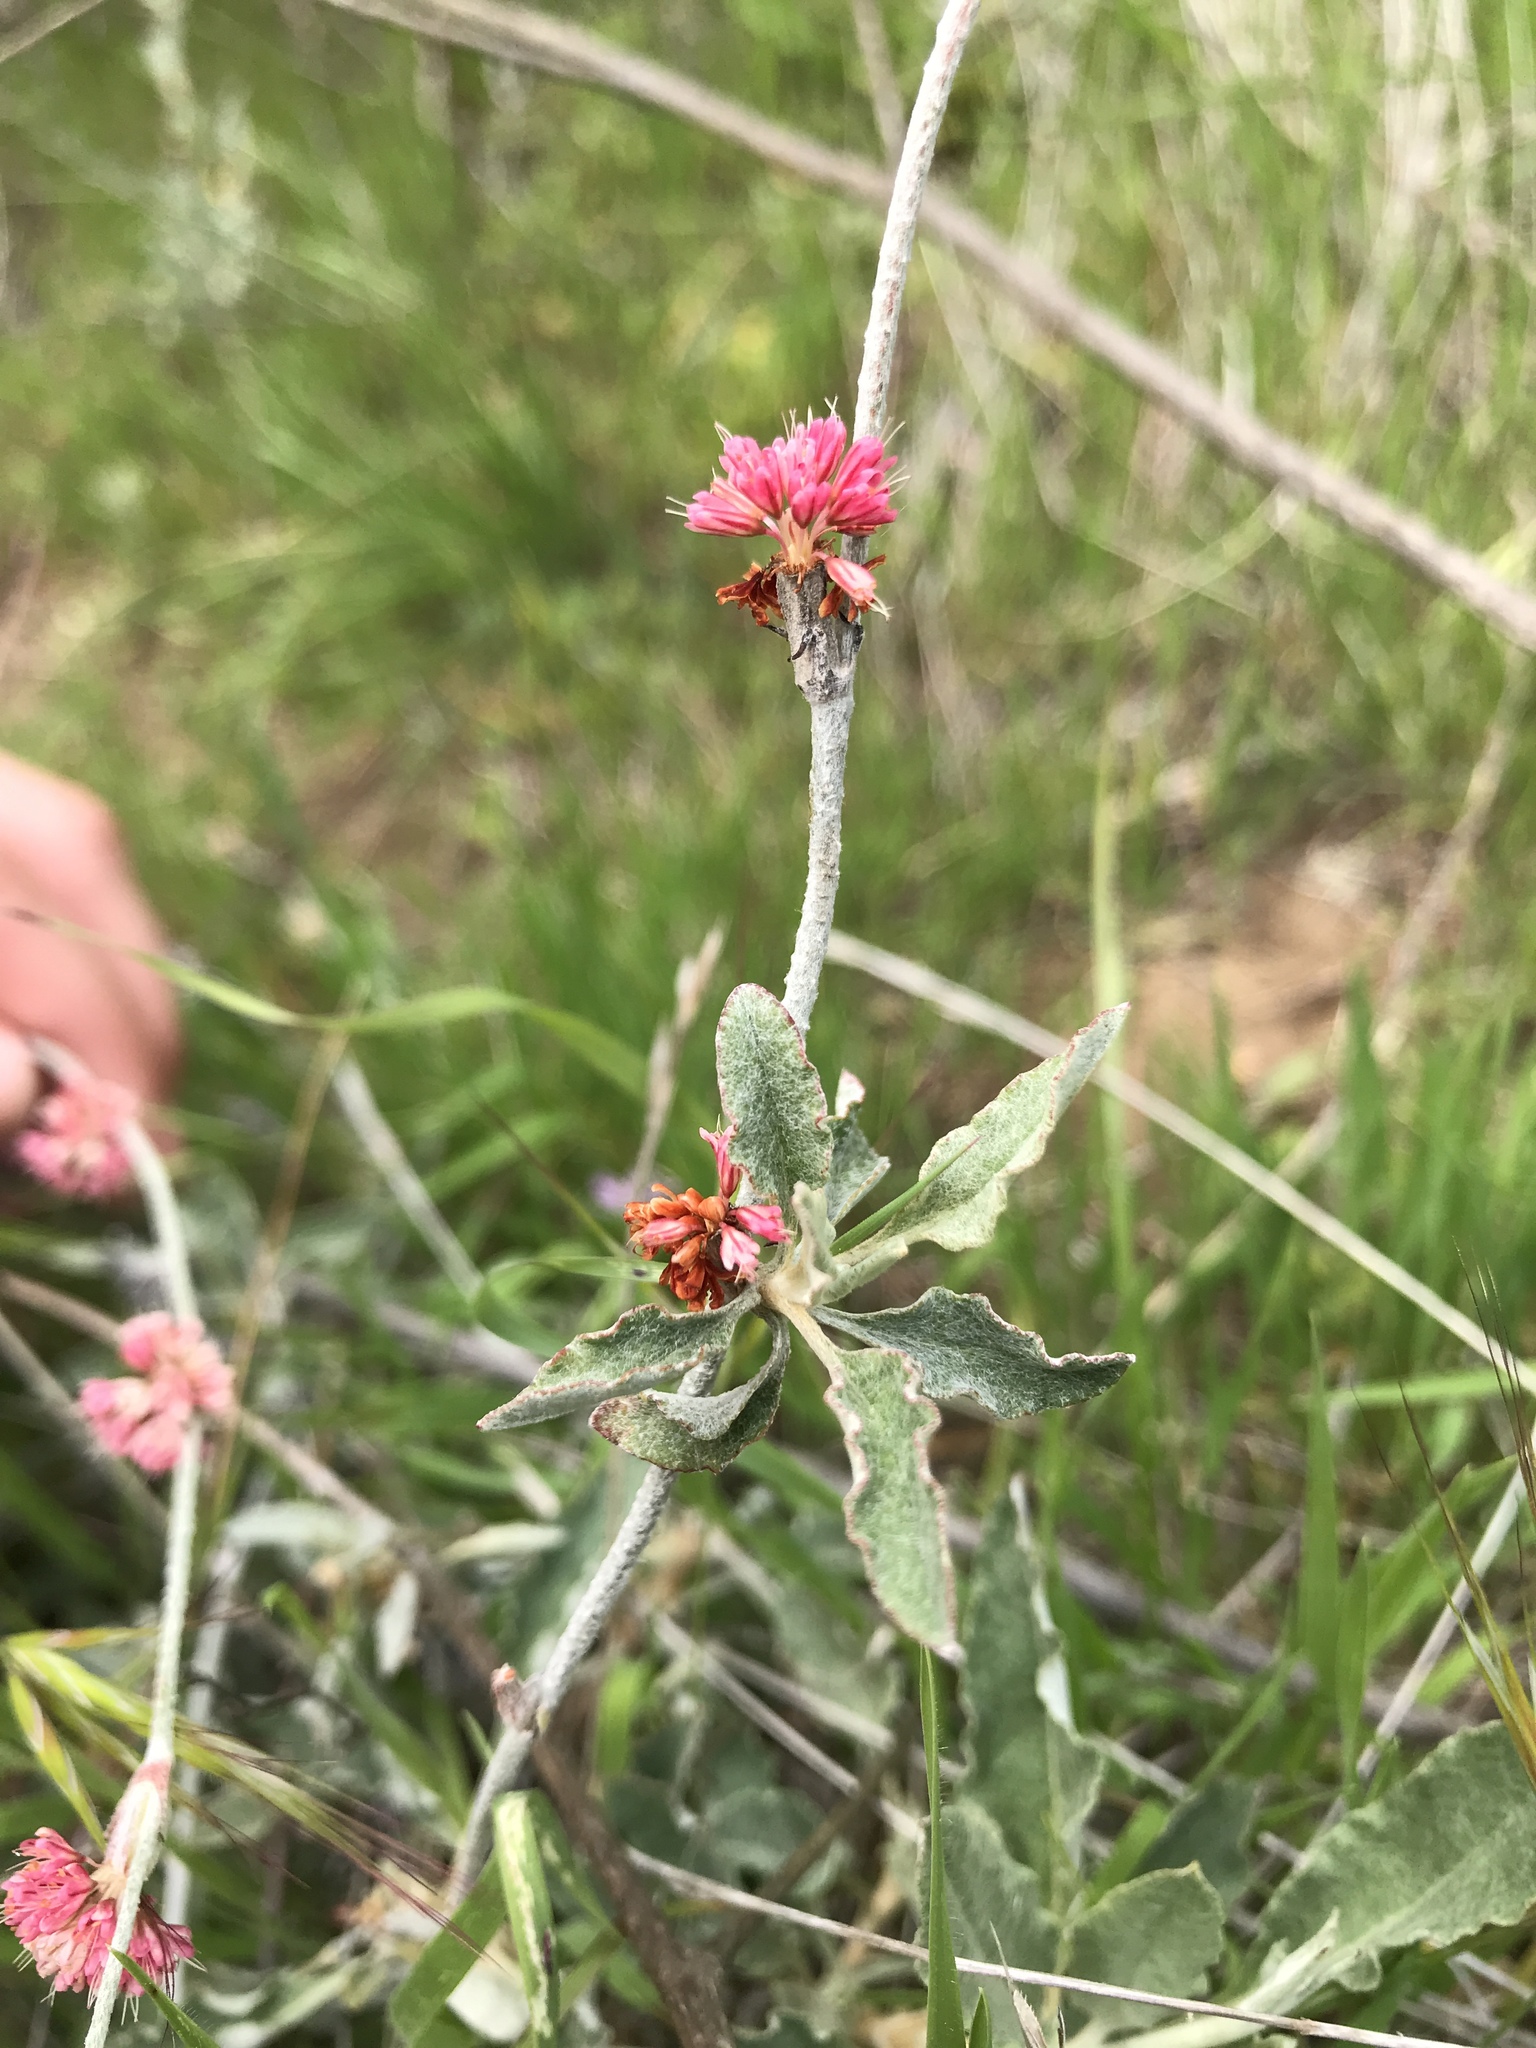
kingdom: Plantae
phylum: Tracheophyta
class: Magnoliopsida
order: Caryophyllales
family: Polygonaceae
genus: Eriogonum
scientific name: Eriogonum elongatum
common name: Long-stem wild buckwheat
